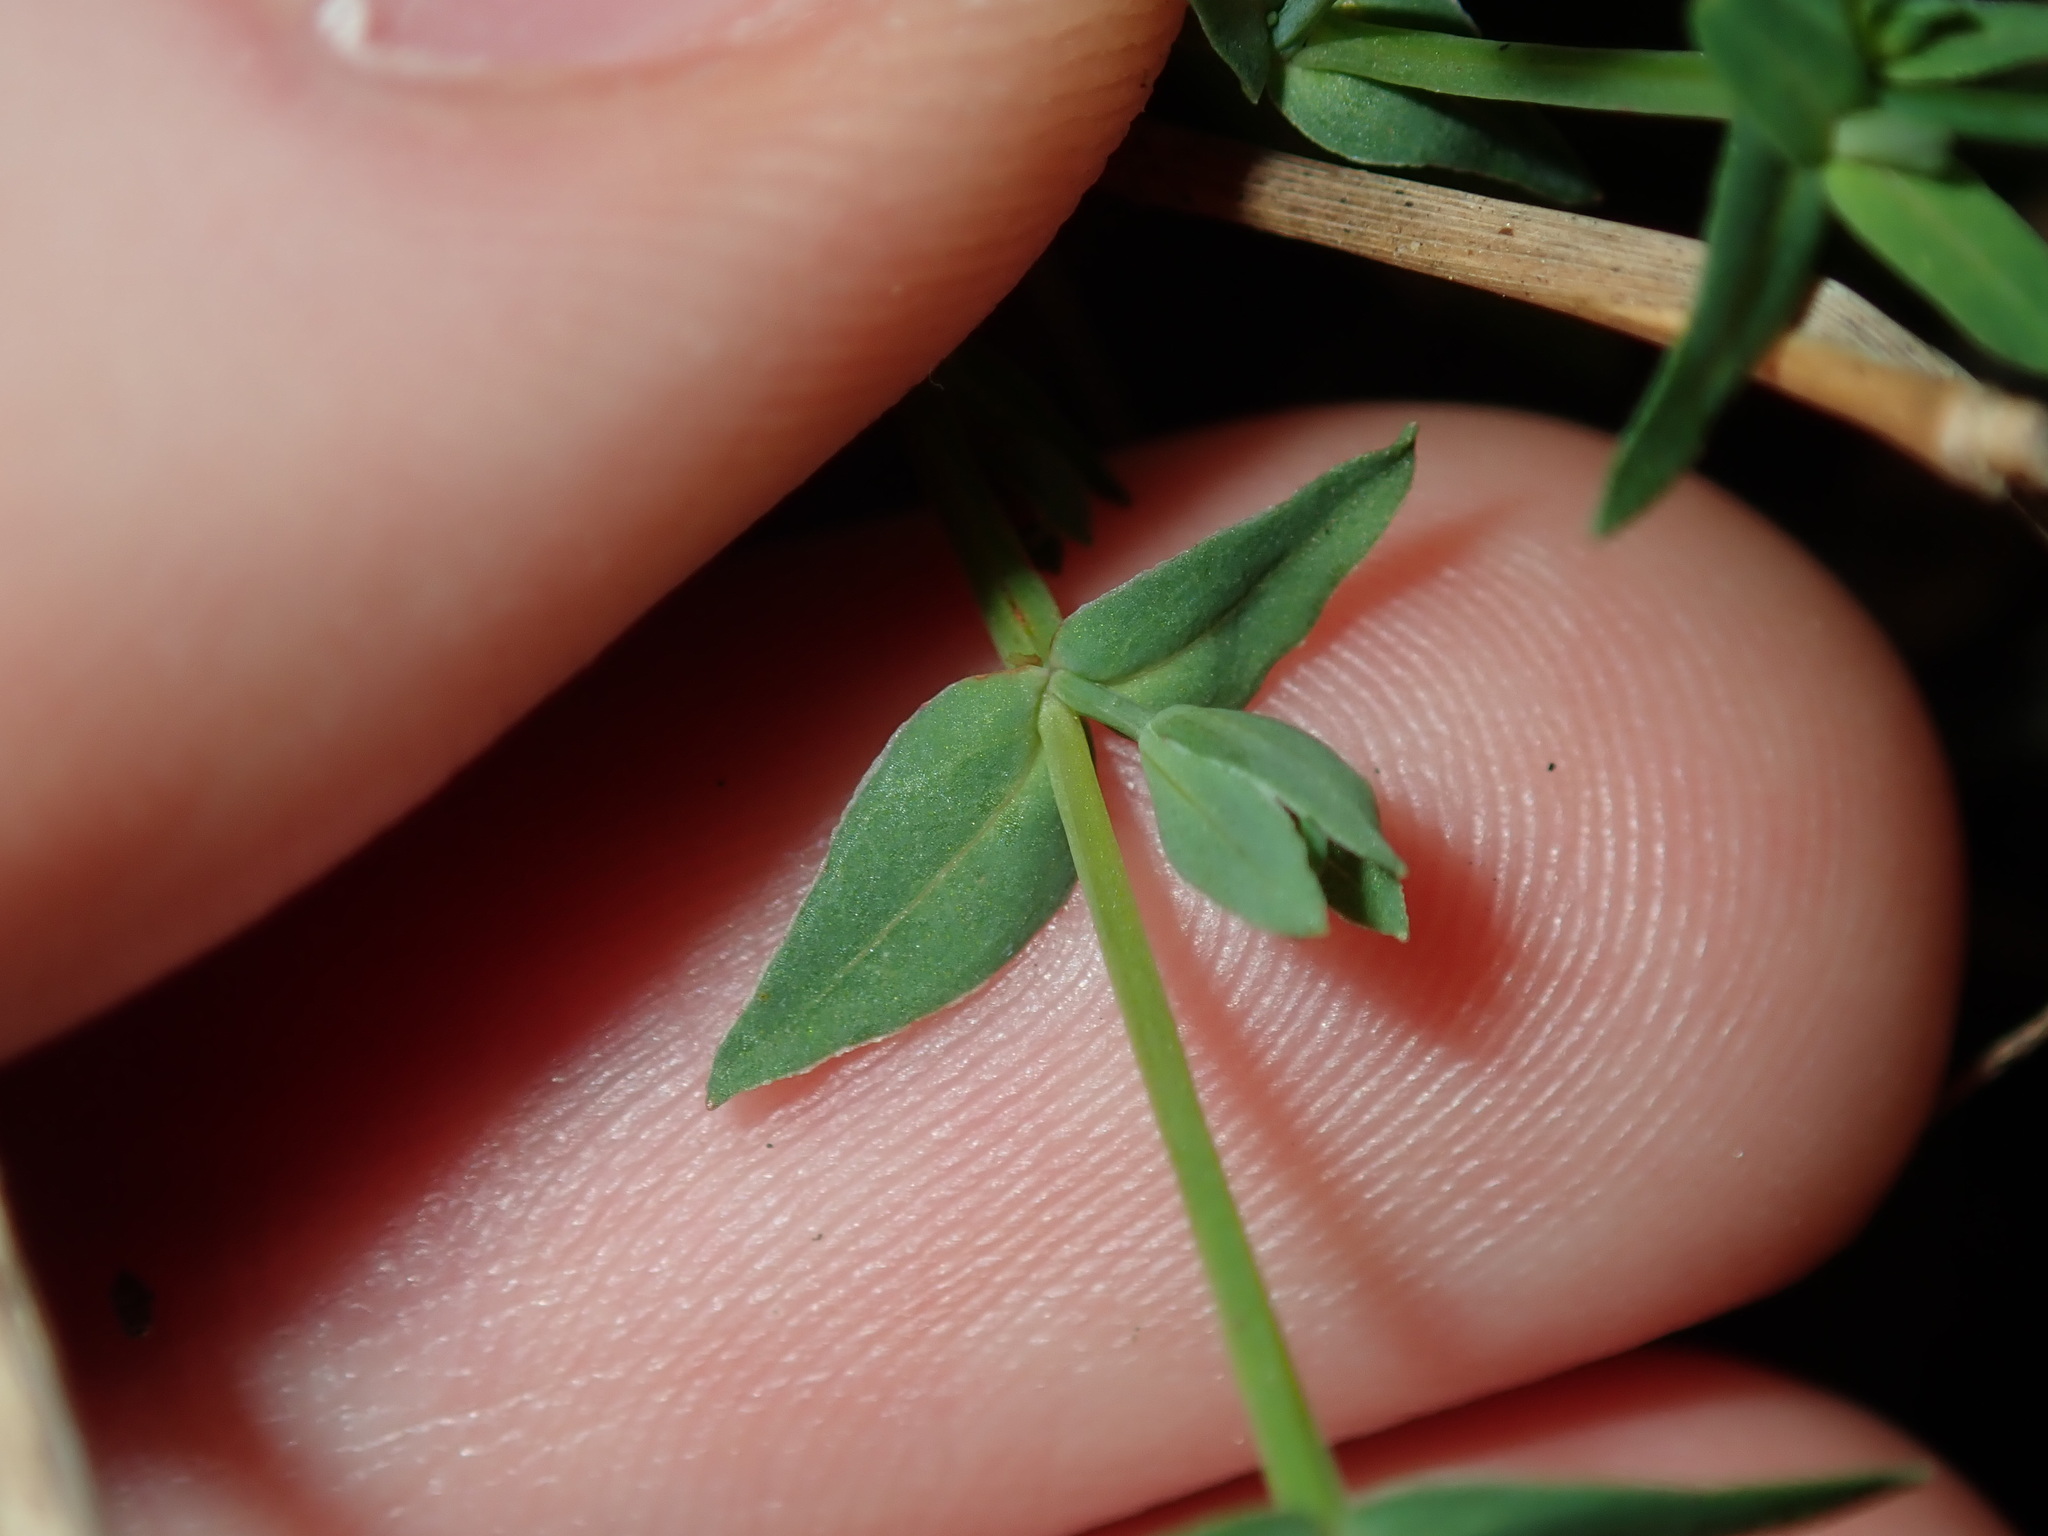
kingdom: Plantae
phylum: Tracheophyta
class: Magnoliopsida
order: Malpighiales
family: Hypericaceae
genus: Hypericum
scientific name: Hypericum gramineum
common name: Grassy st. johnswort
